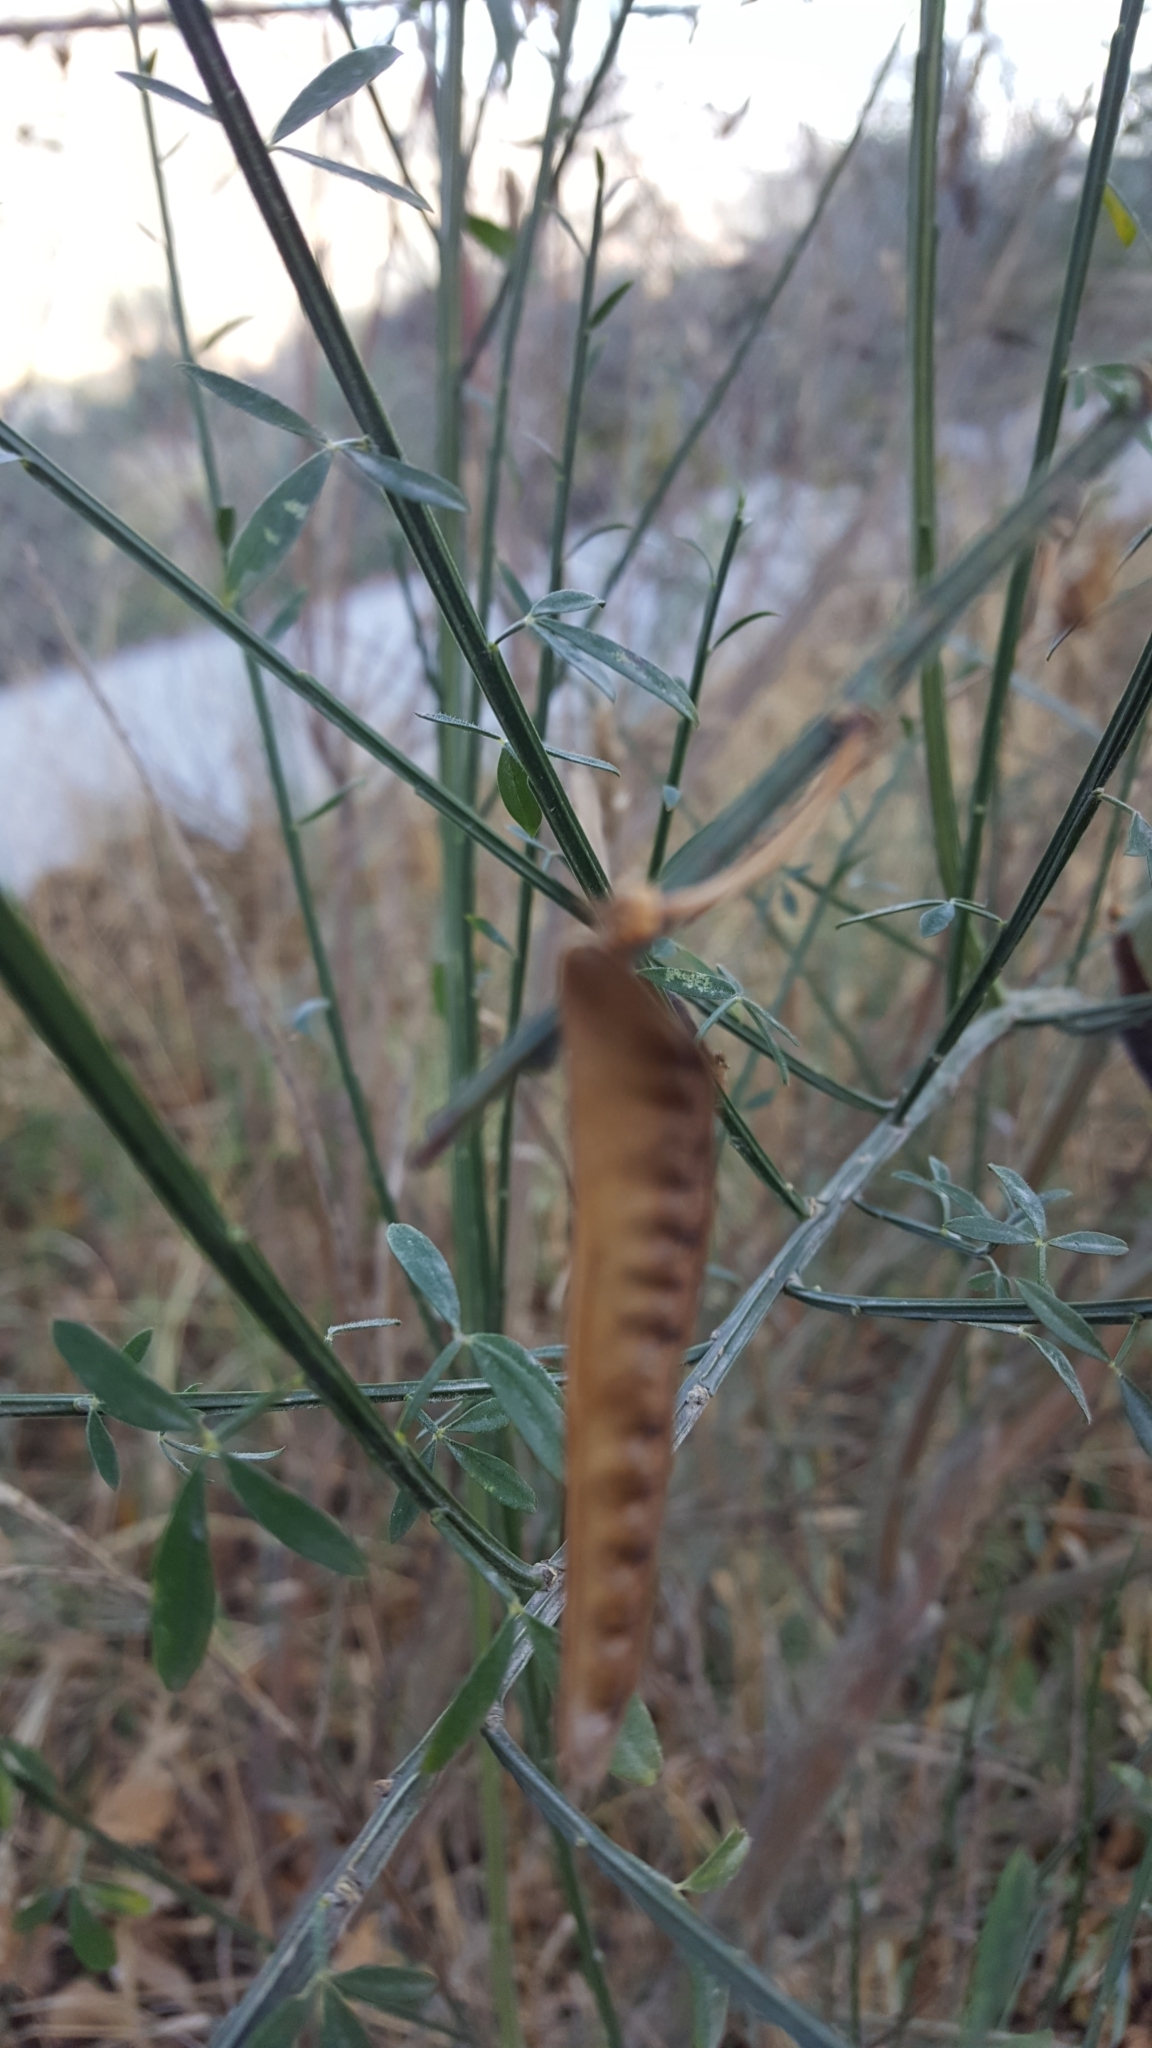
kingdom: Plantae
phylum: Tracheophyta
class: Magnoliopsida
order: Fabales
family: Fabaceae
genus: Cytisus
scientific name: Cytisus scoparius
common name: Scotch broom
